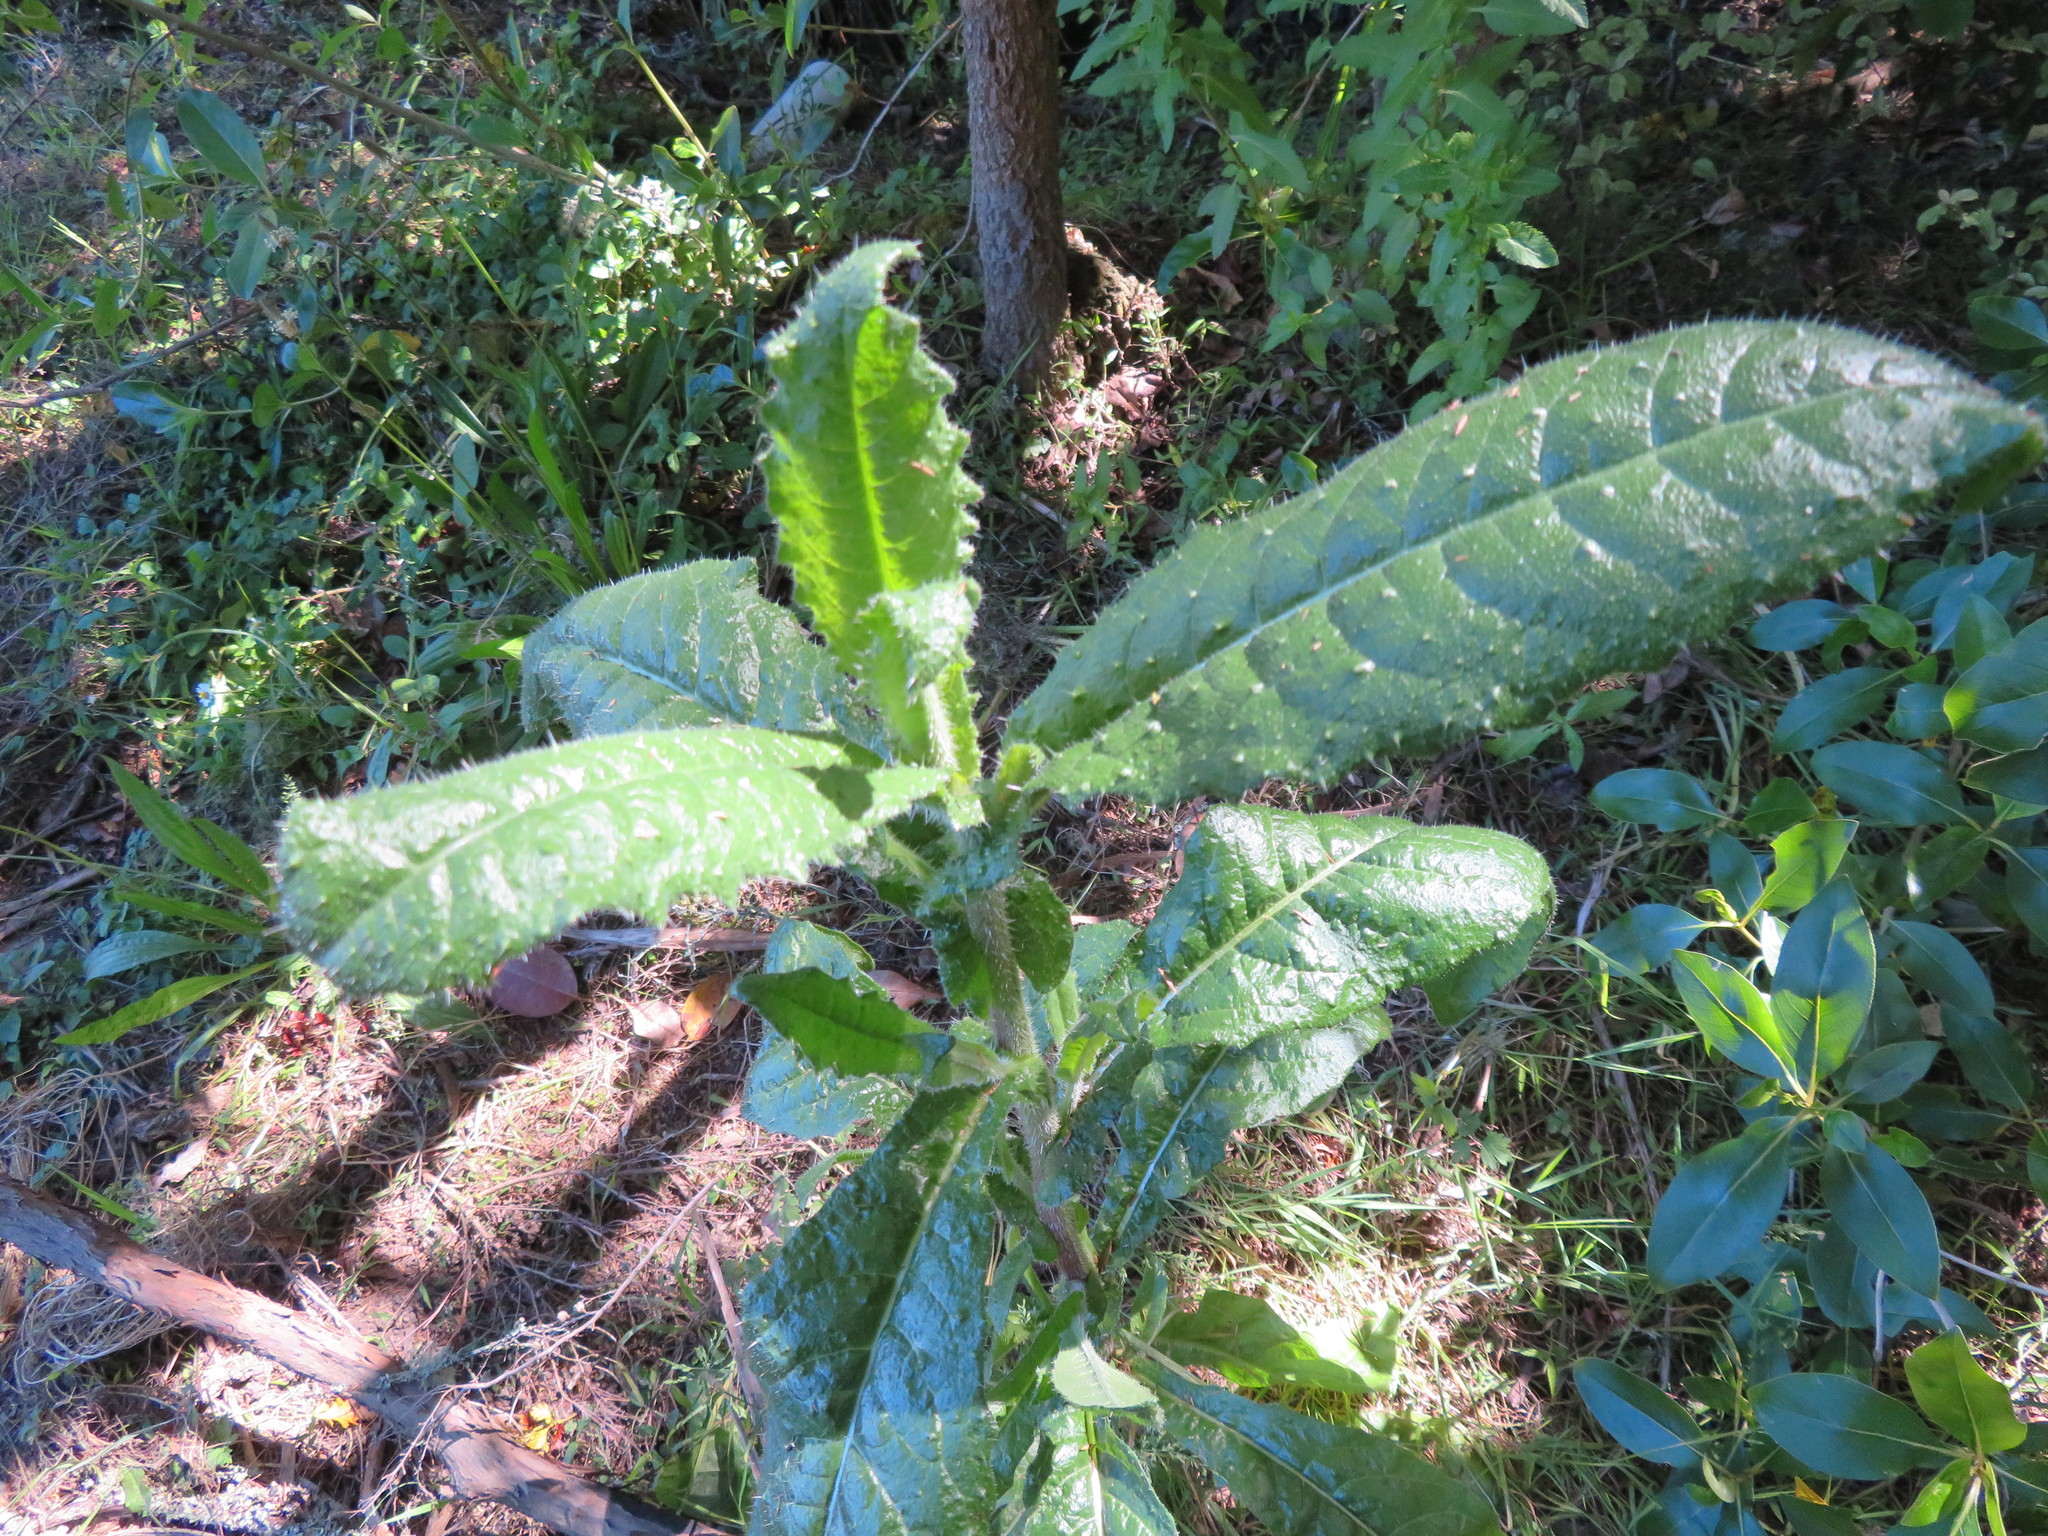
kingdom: Plantae
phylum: Tracheophyta
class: Magnoliopsida
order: Asterales
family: Asteraceae
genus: Helminthotheca
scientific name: Helminthotheca echioides
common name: Ox-tongue
